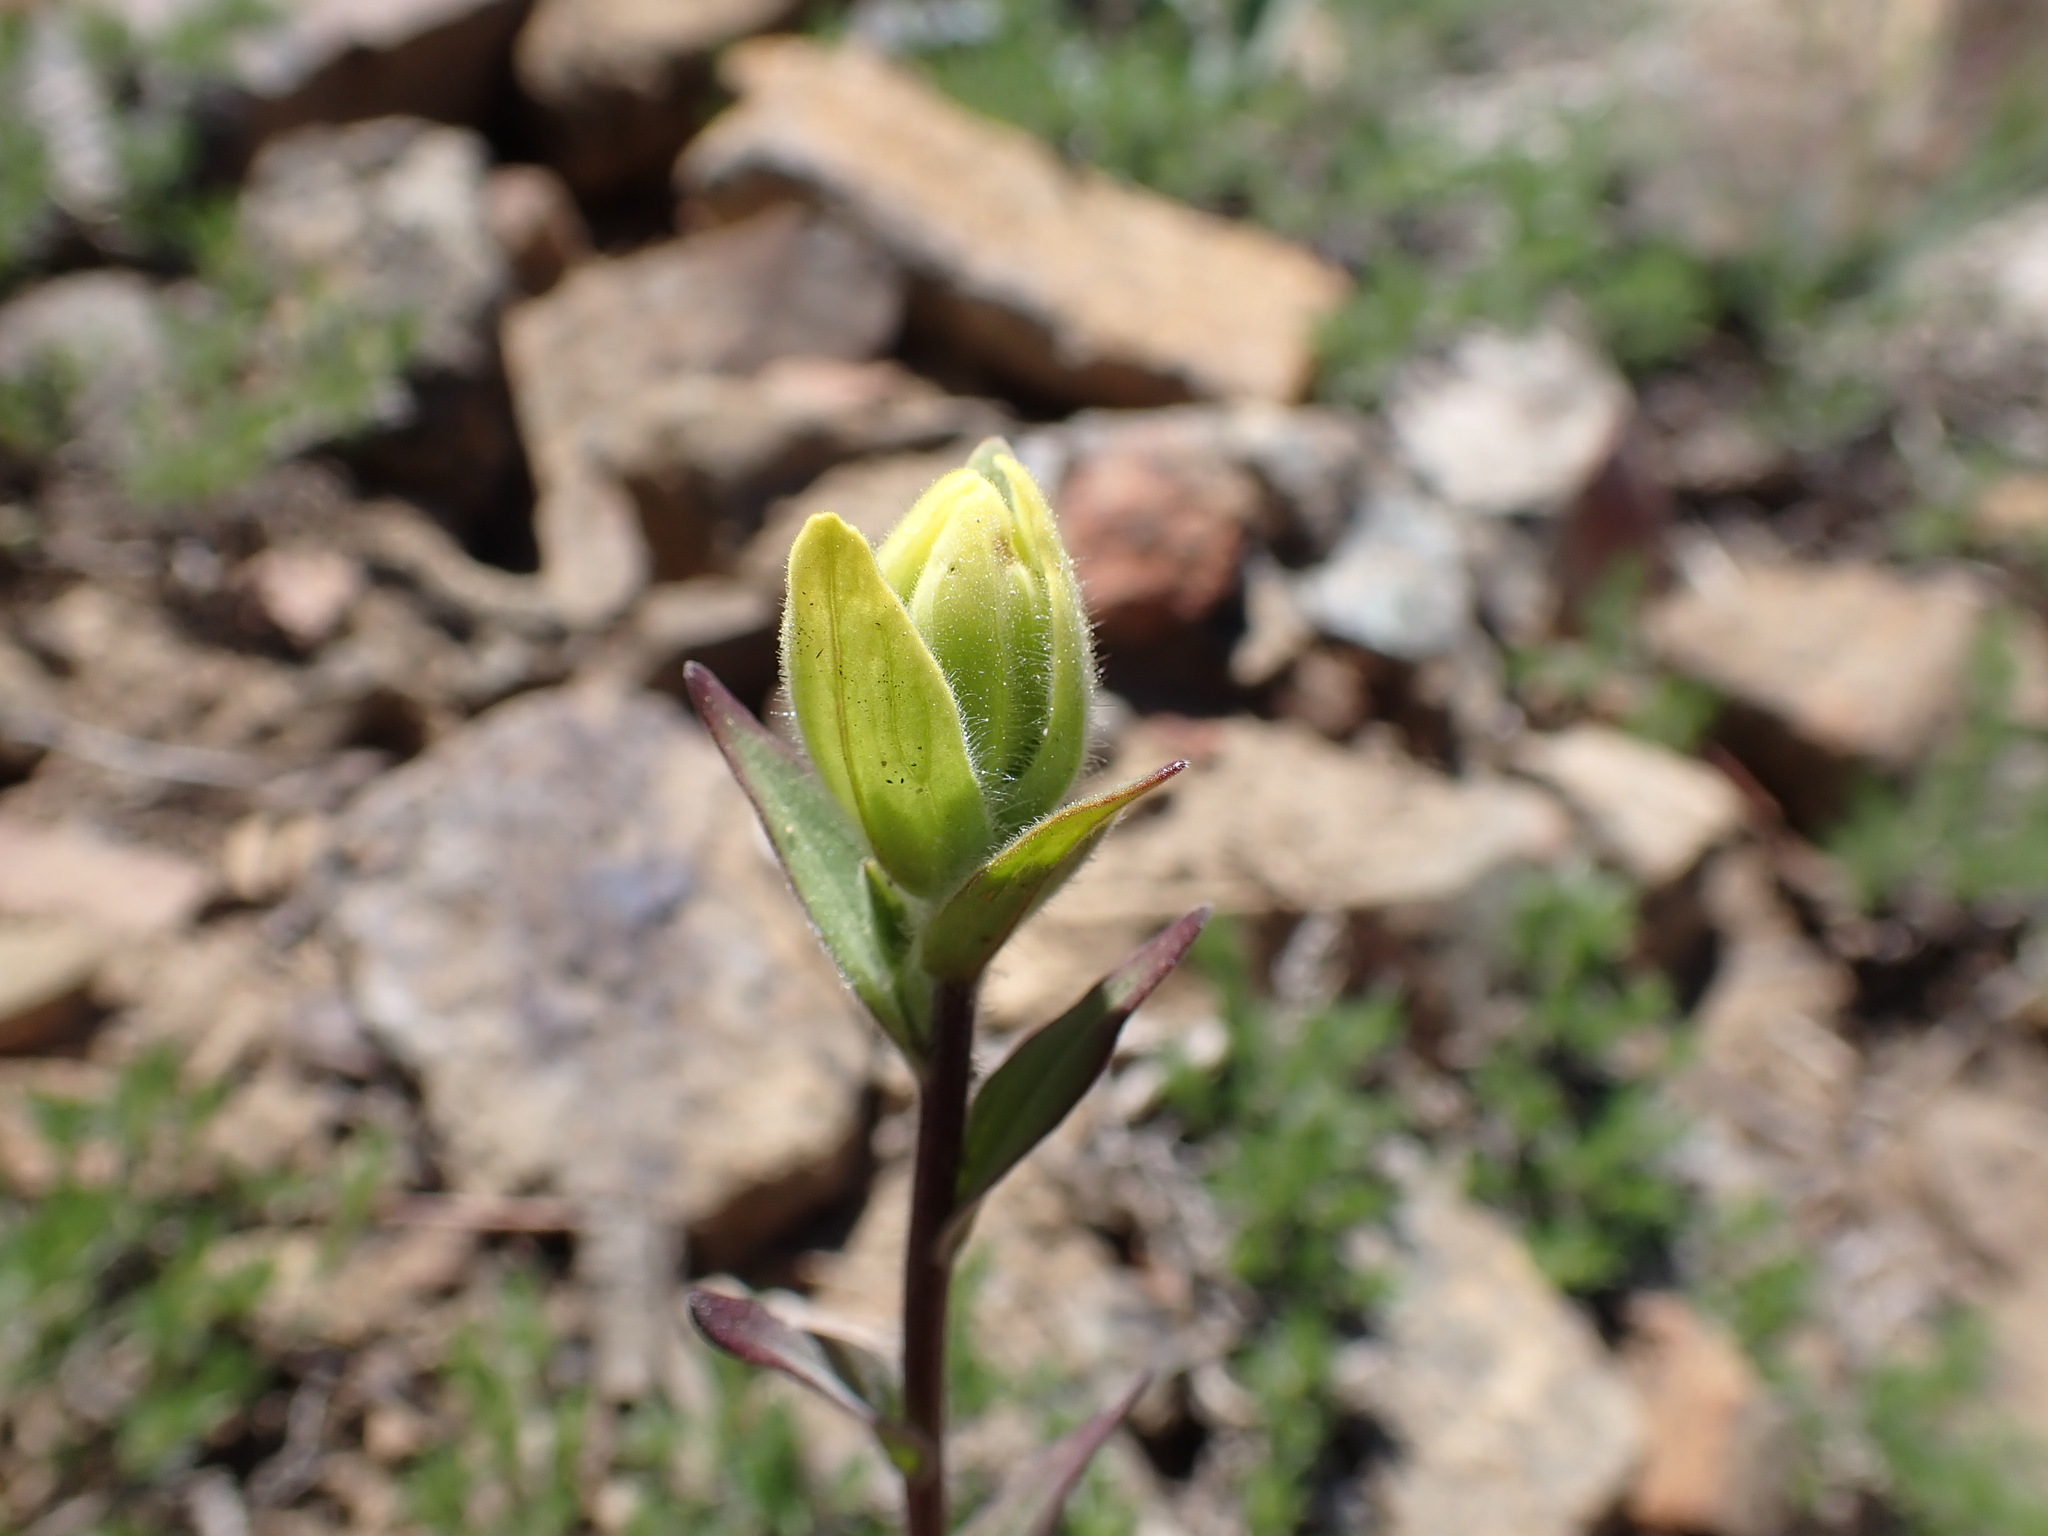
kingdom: Plantae
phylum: Tracheophyta
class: Magnoliopsida
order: Lamiales
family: Orobanchaceae
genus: Castilleja
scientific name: Castilleja elmeri
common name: Elmer's paintbrush
